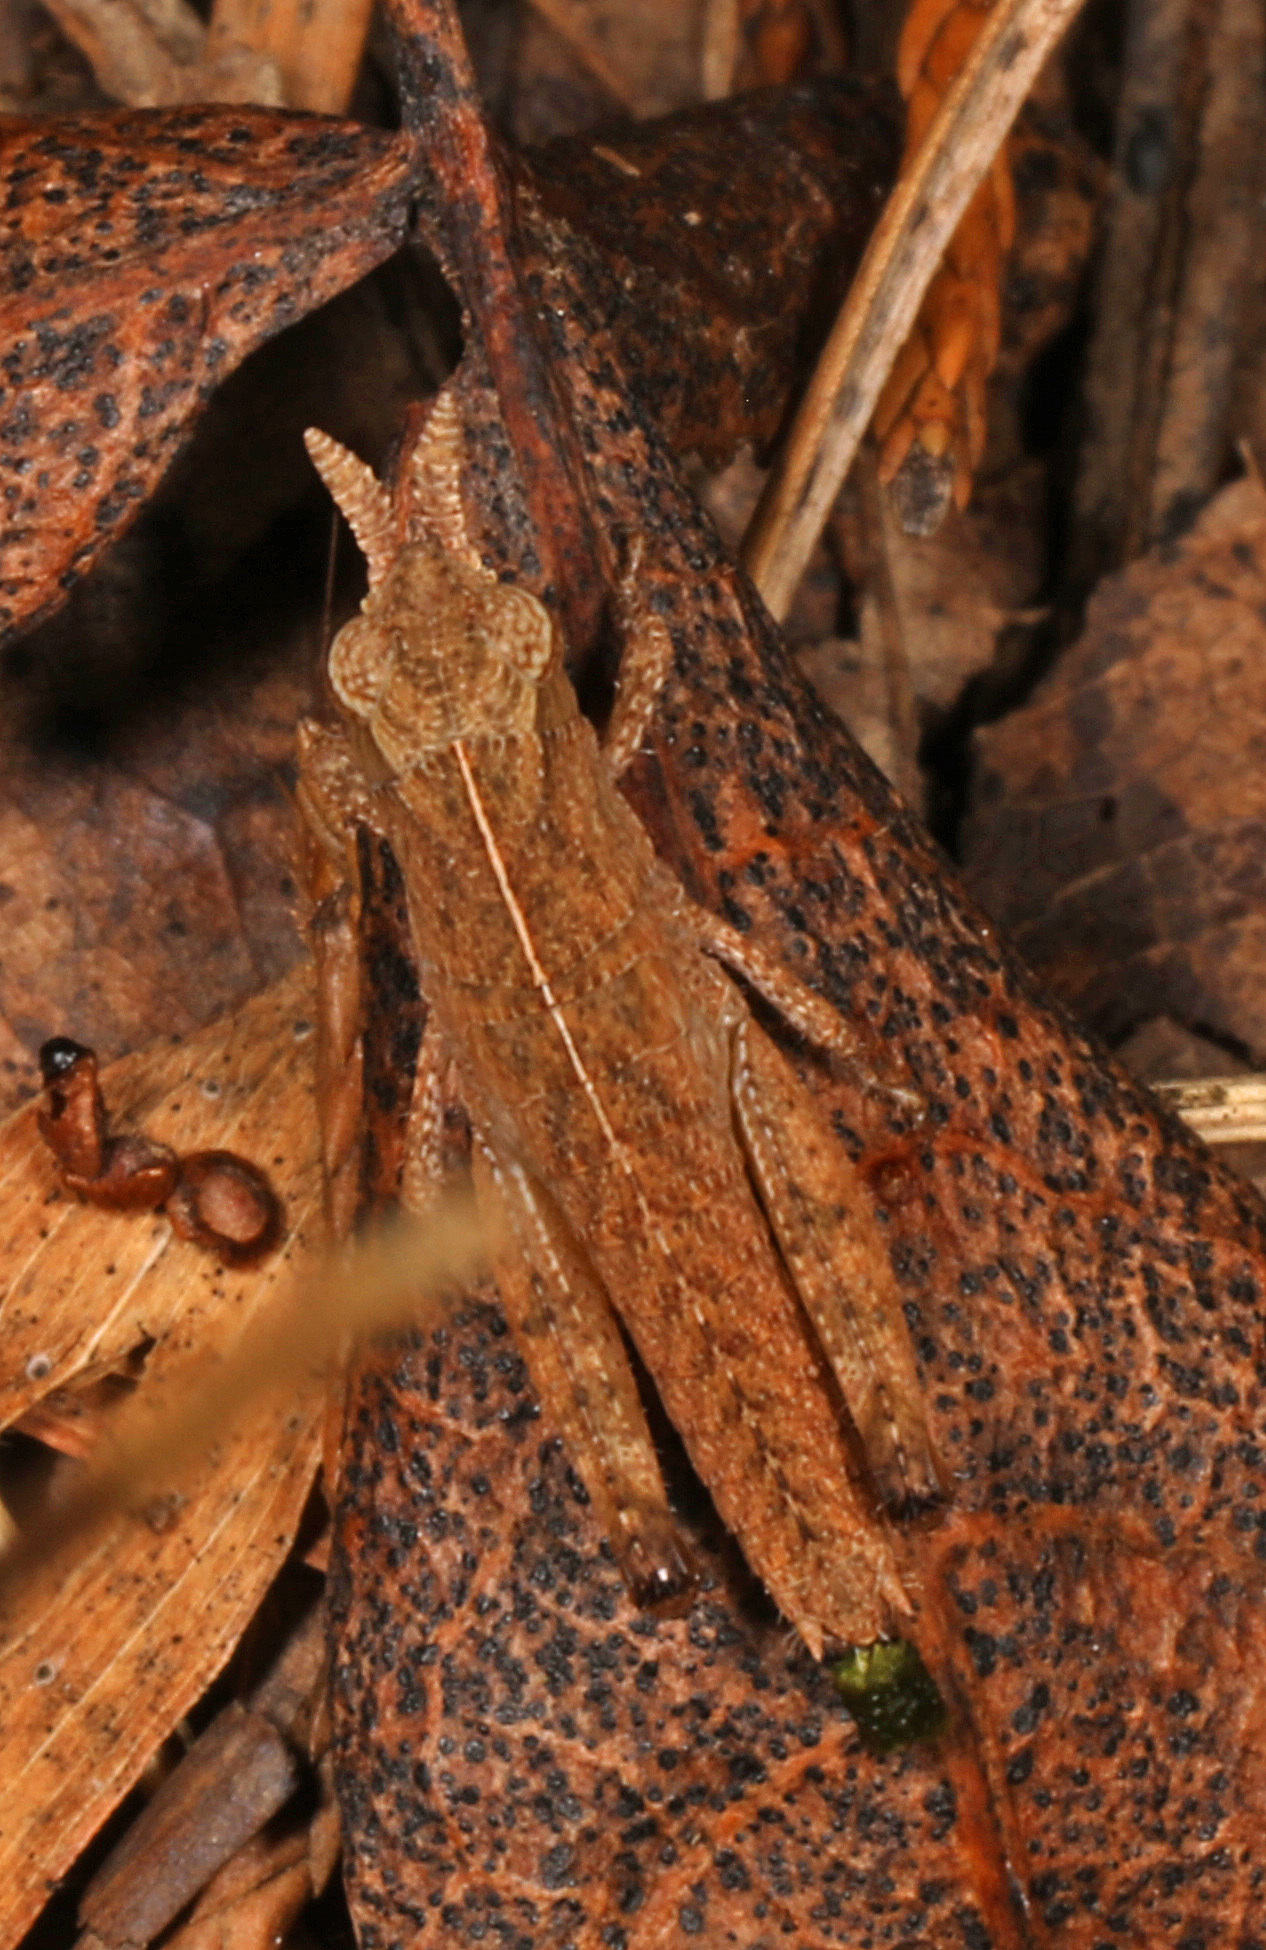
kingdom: Animalia
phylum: Arthropoda
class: Insecta
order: Orthoptera
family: Acrididae
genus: Chortophaga
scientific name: Chortophaga viridifasciata
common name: Green-striped grasshopper
